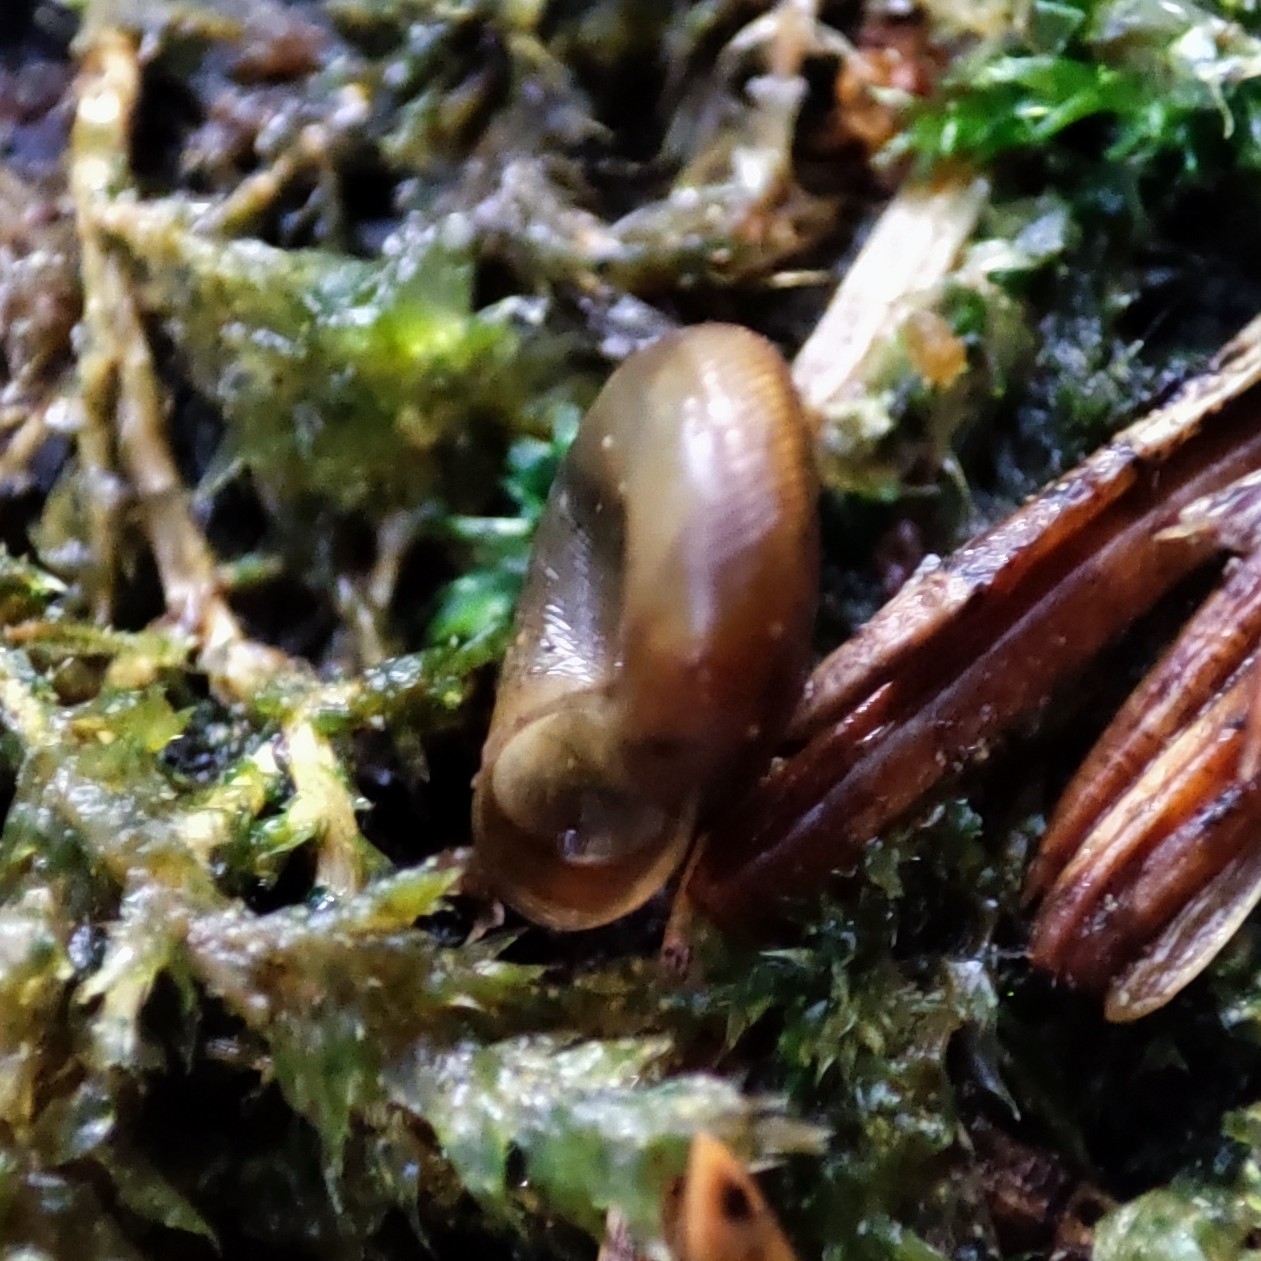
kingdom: Animalia
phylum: Mollusca
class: Gastropoda
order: Stylommatophora
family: Discidae
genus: Discus
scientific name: Discus ruderatus
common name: Brown disc snail
